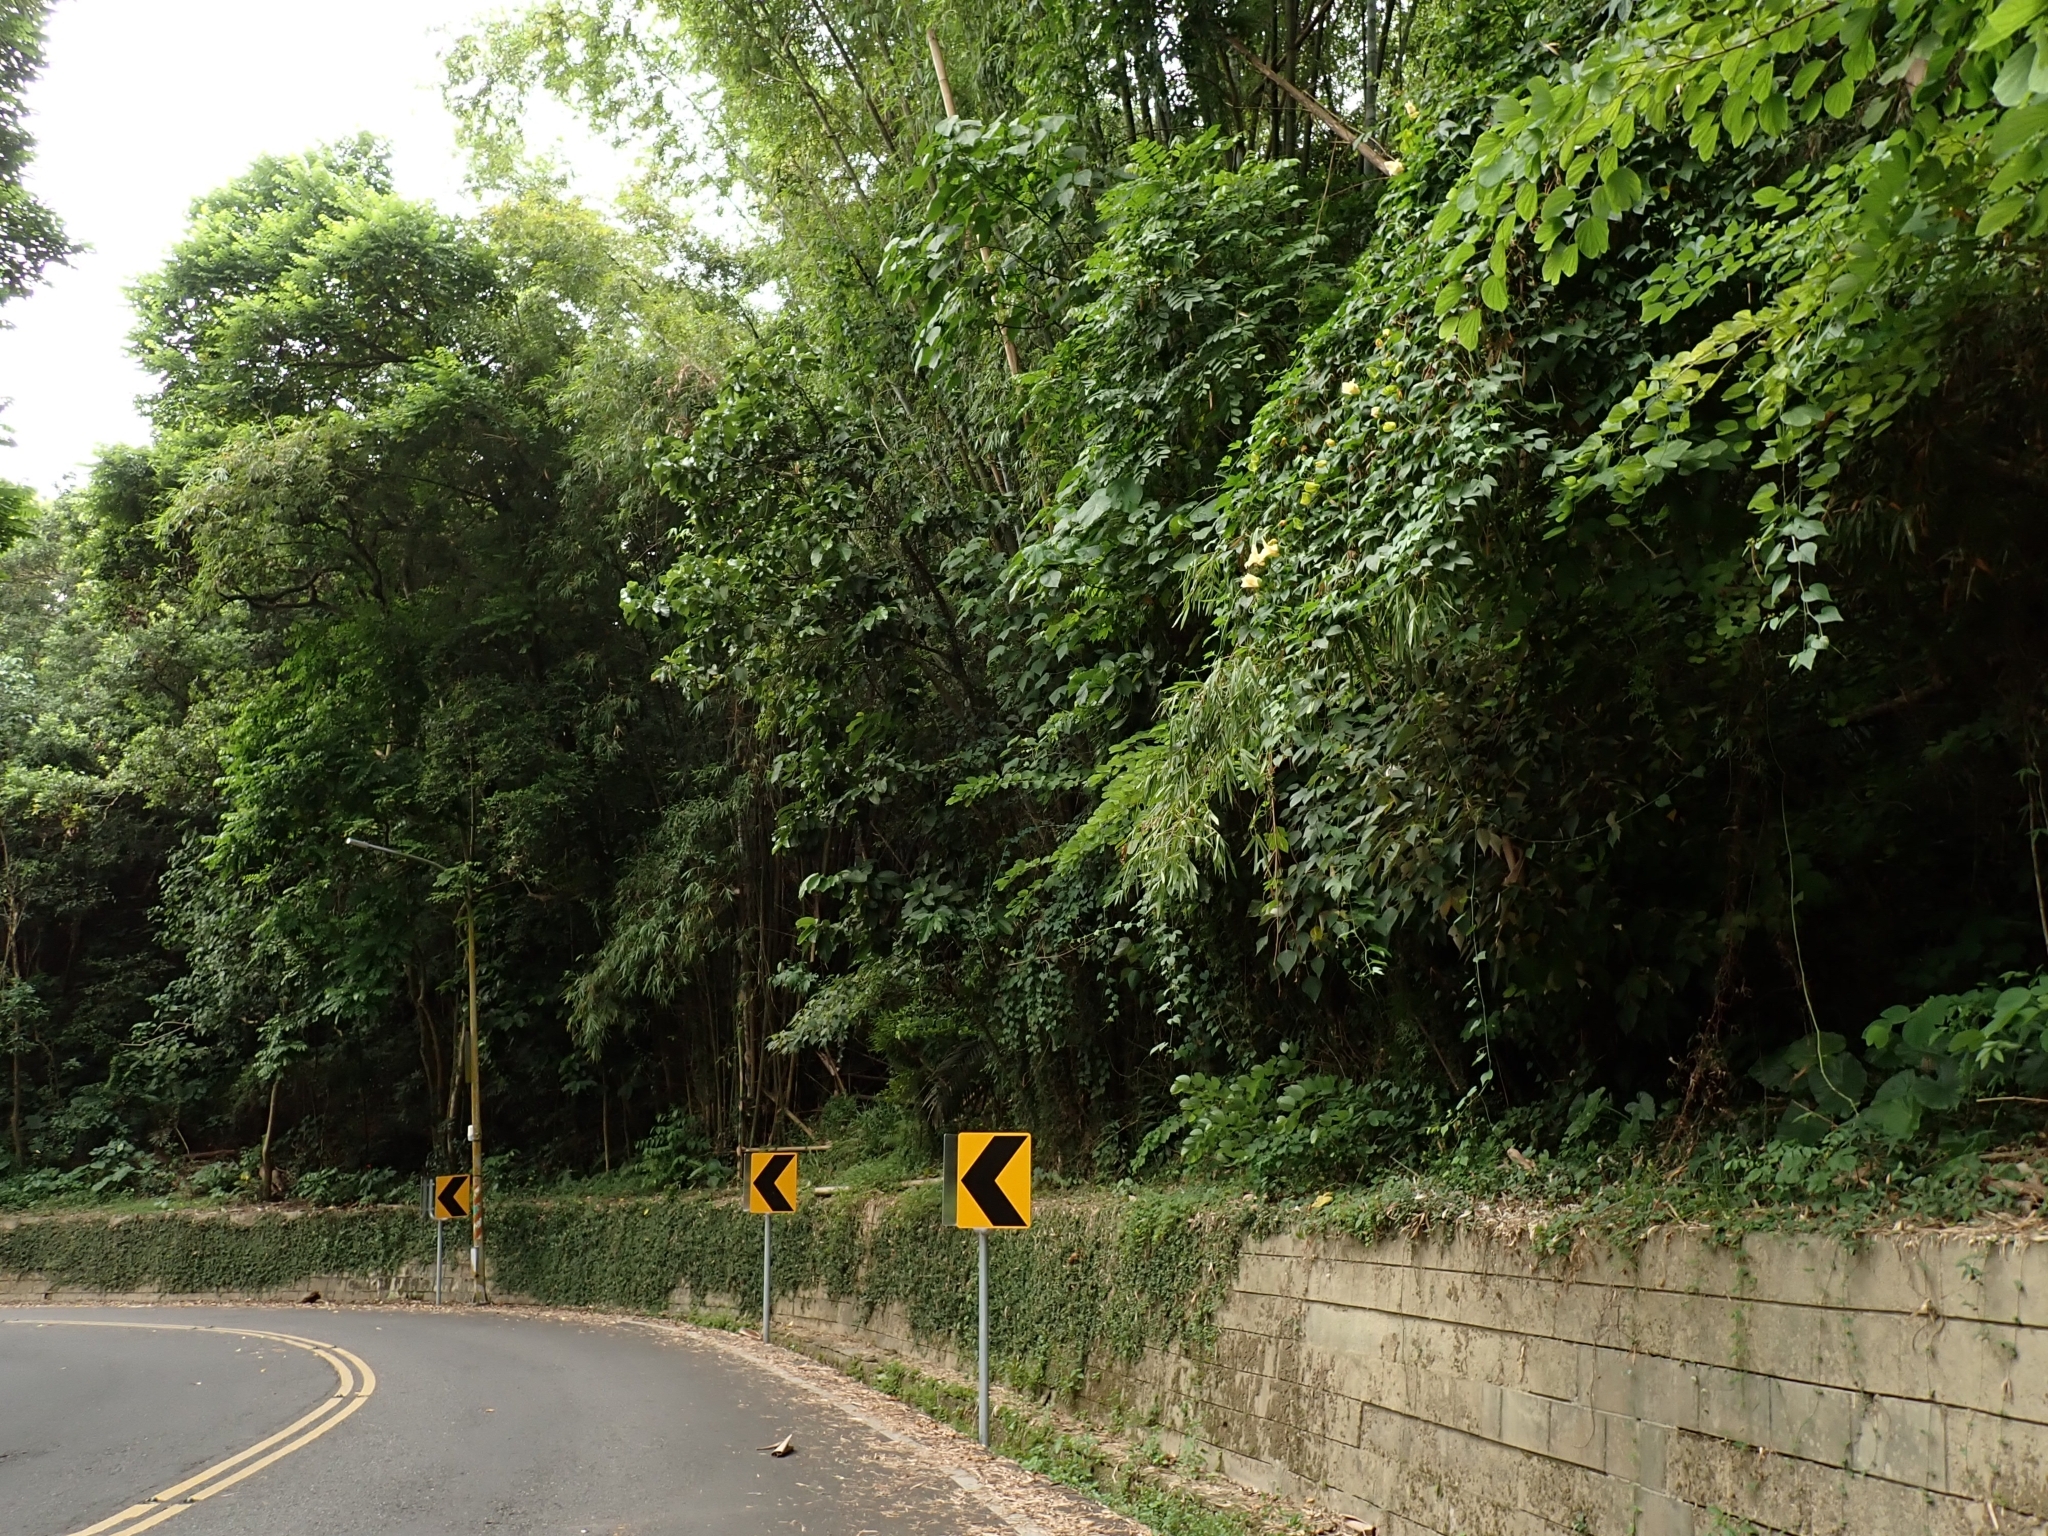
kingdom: Plantae
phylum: Tracheophyta
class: Magnoliopsida
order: Cucurbitales
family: Cucurbitaceae
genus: Momordica
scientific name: Momordica cochinchinensis
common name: Chinese bitter-cucumber
